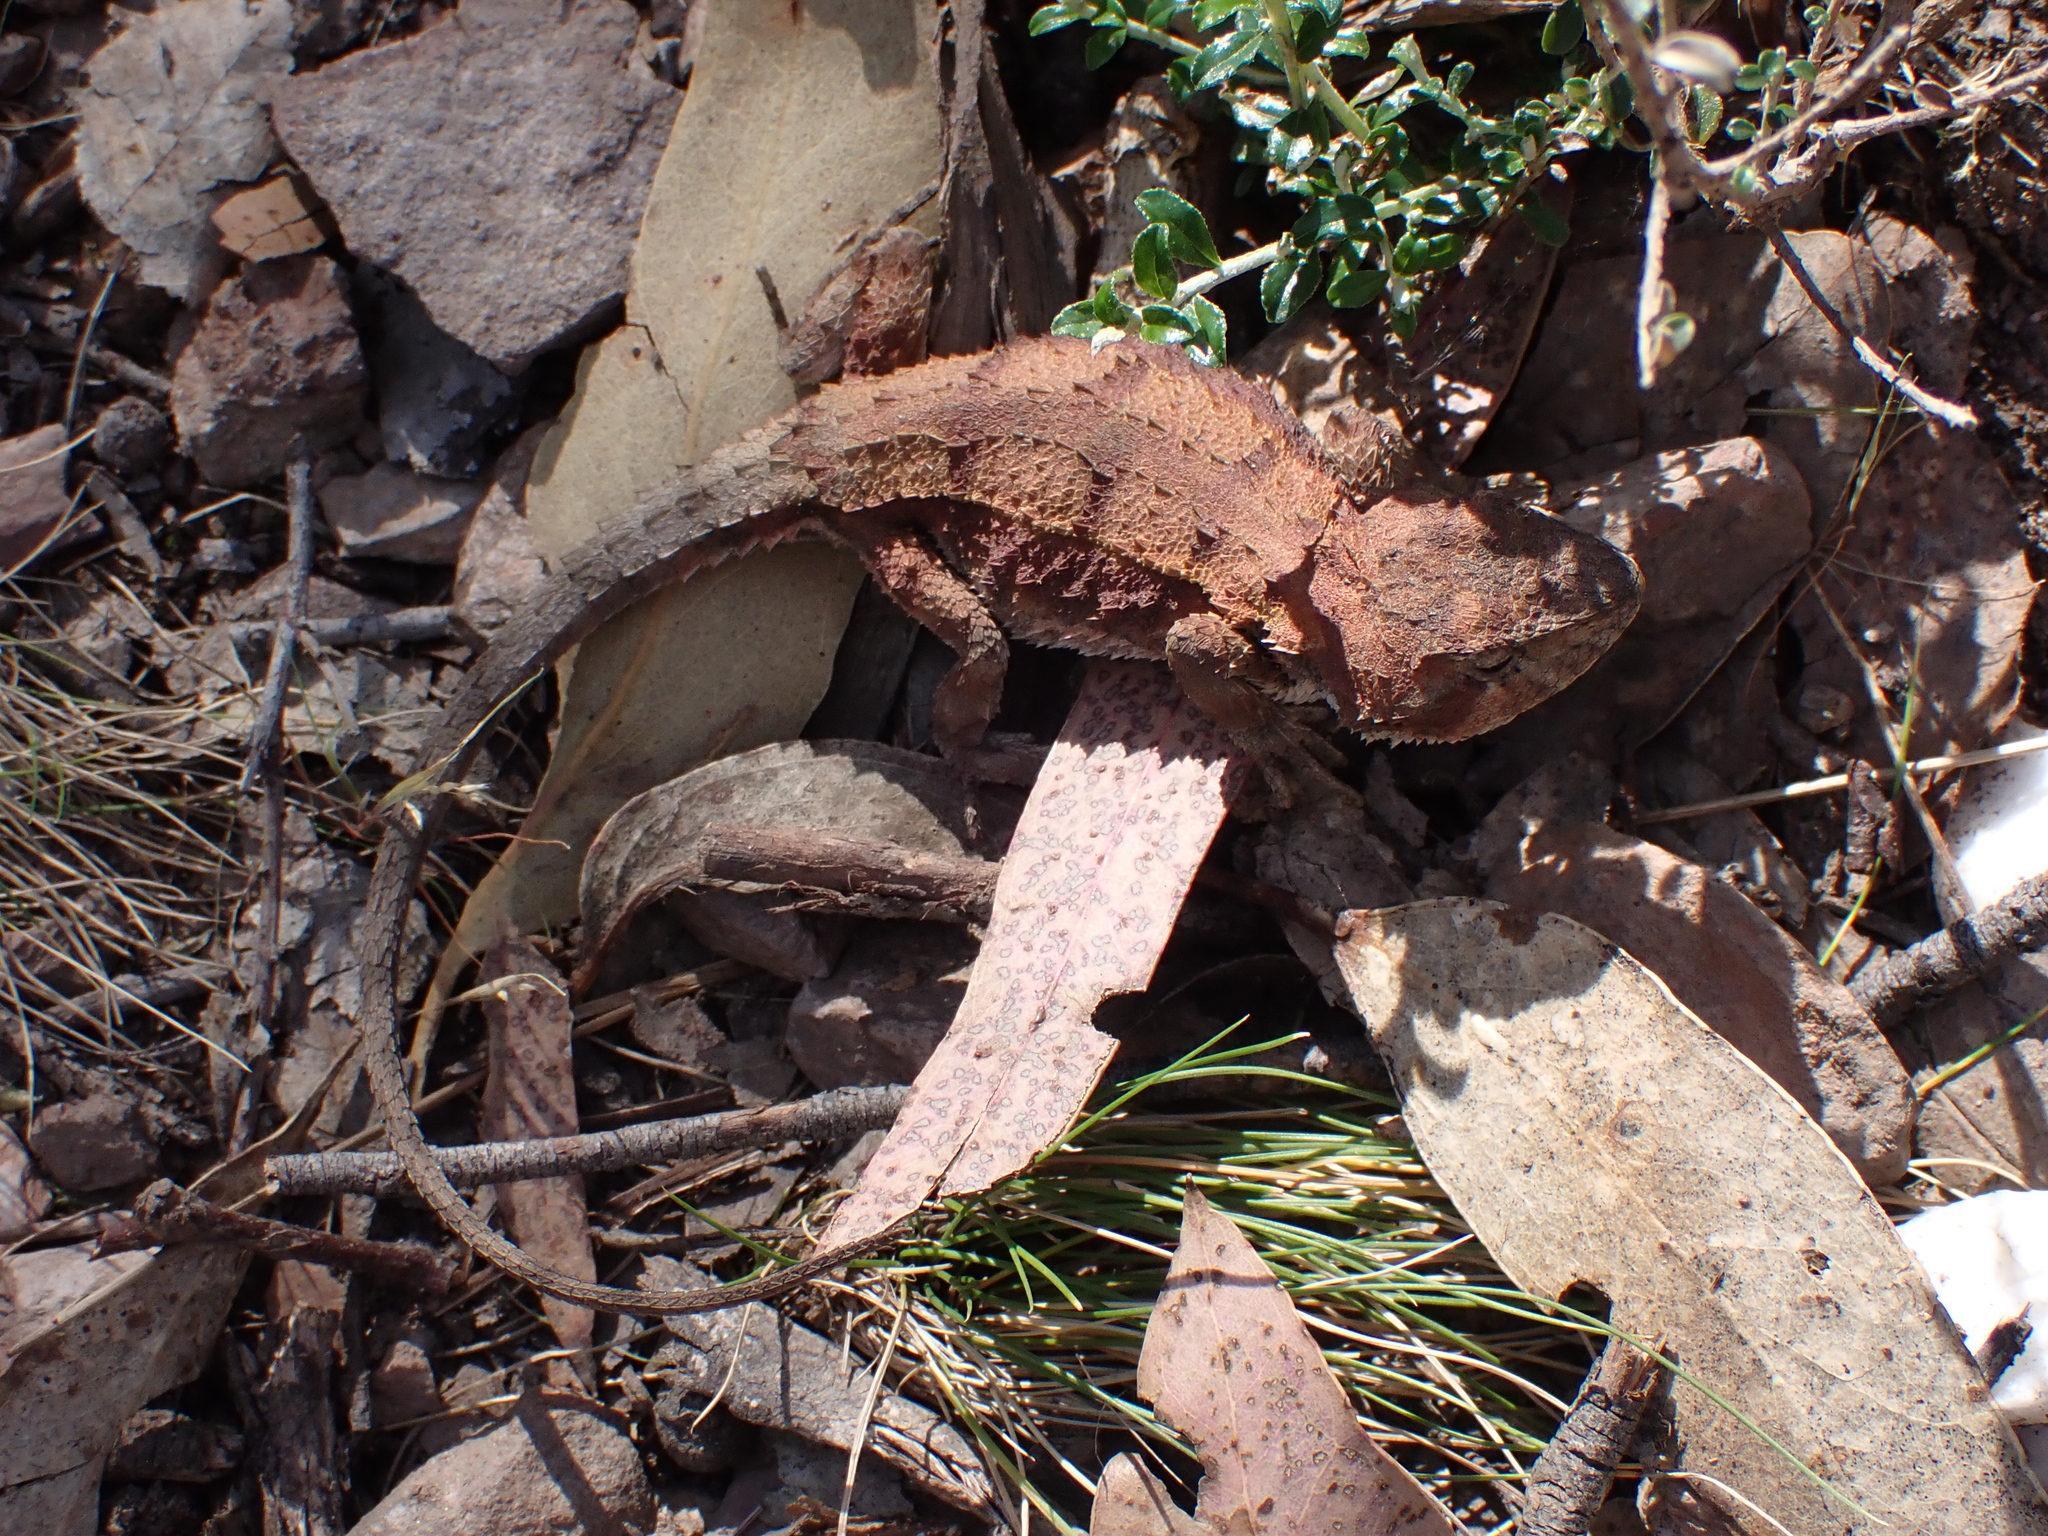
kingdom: Animalia
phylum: Chordata
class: Squamata
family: Agamidae
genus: Rankinia
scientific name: Rankinia diemensis
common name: Mountain dragon
